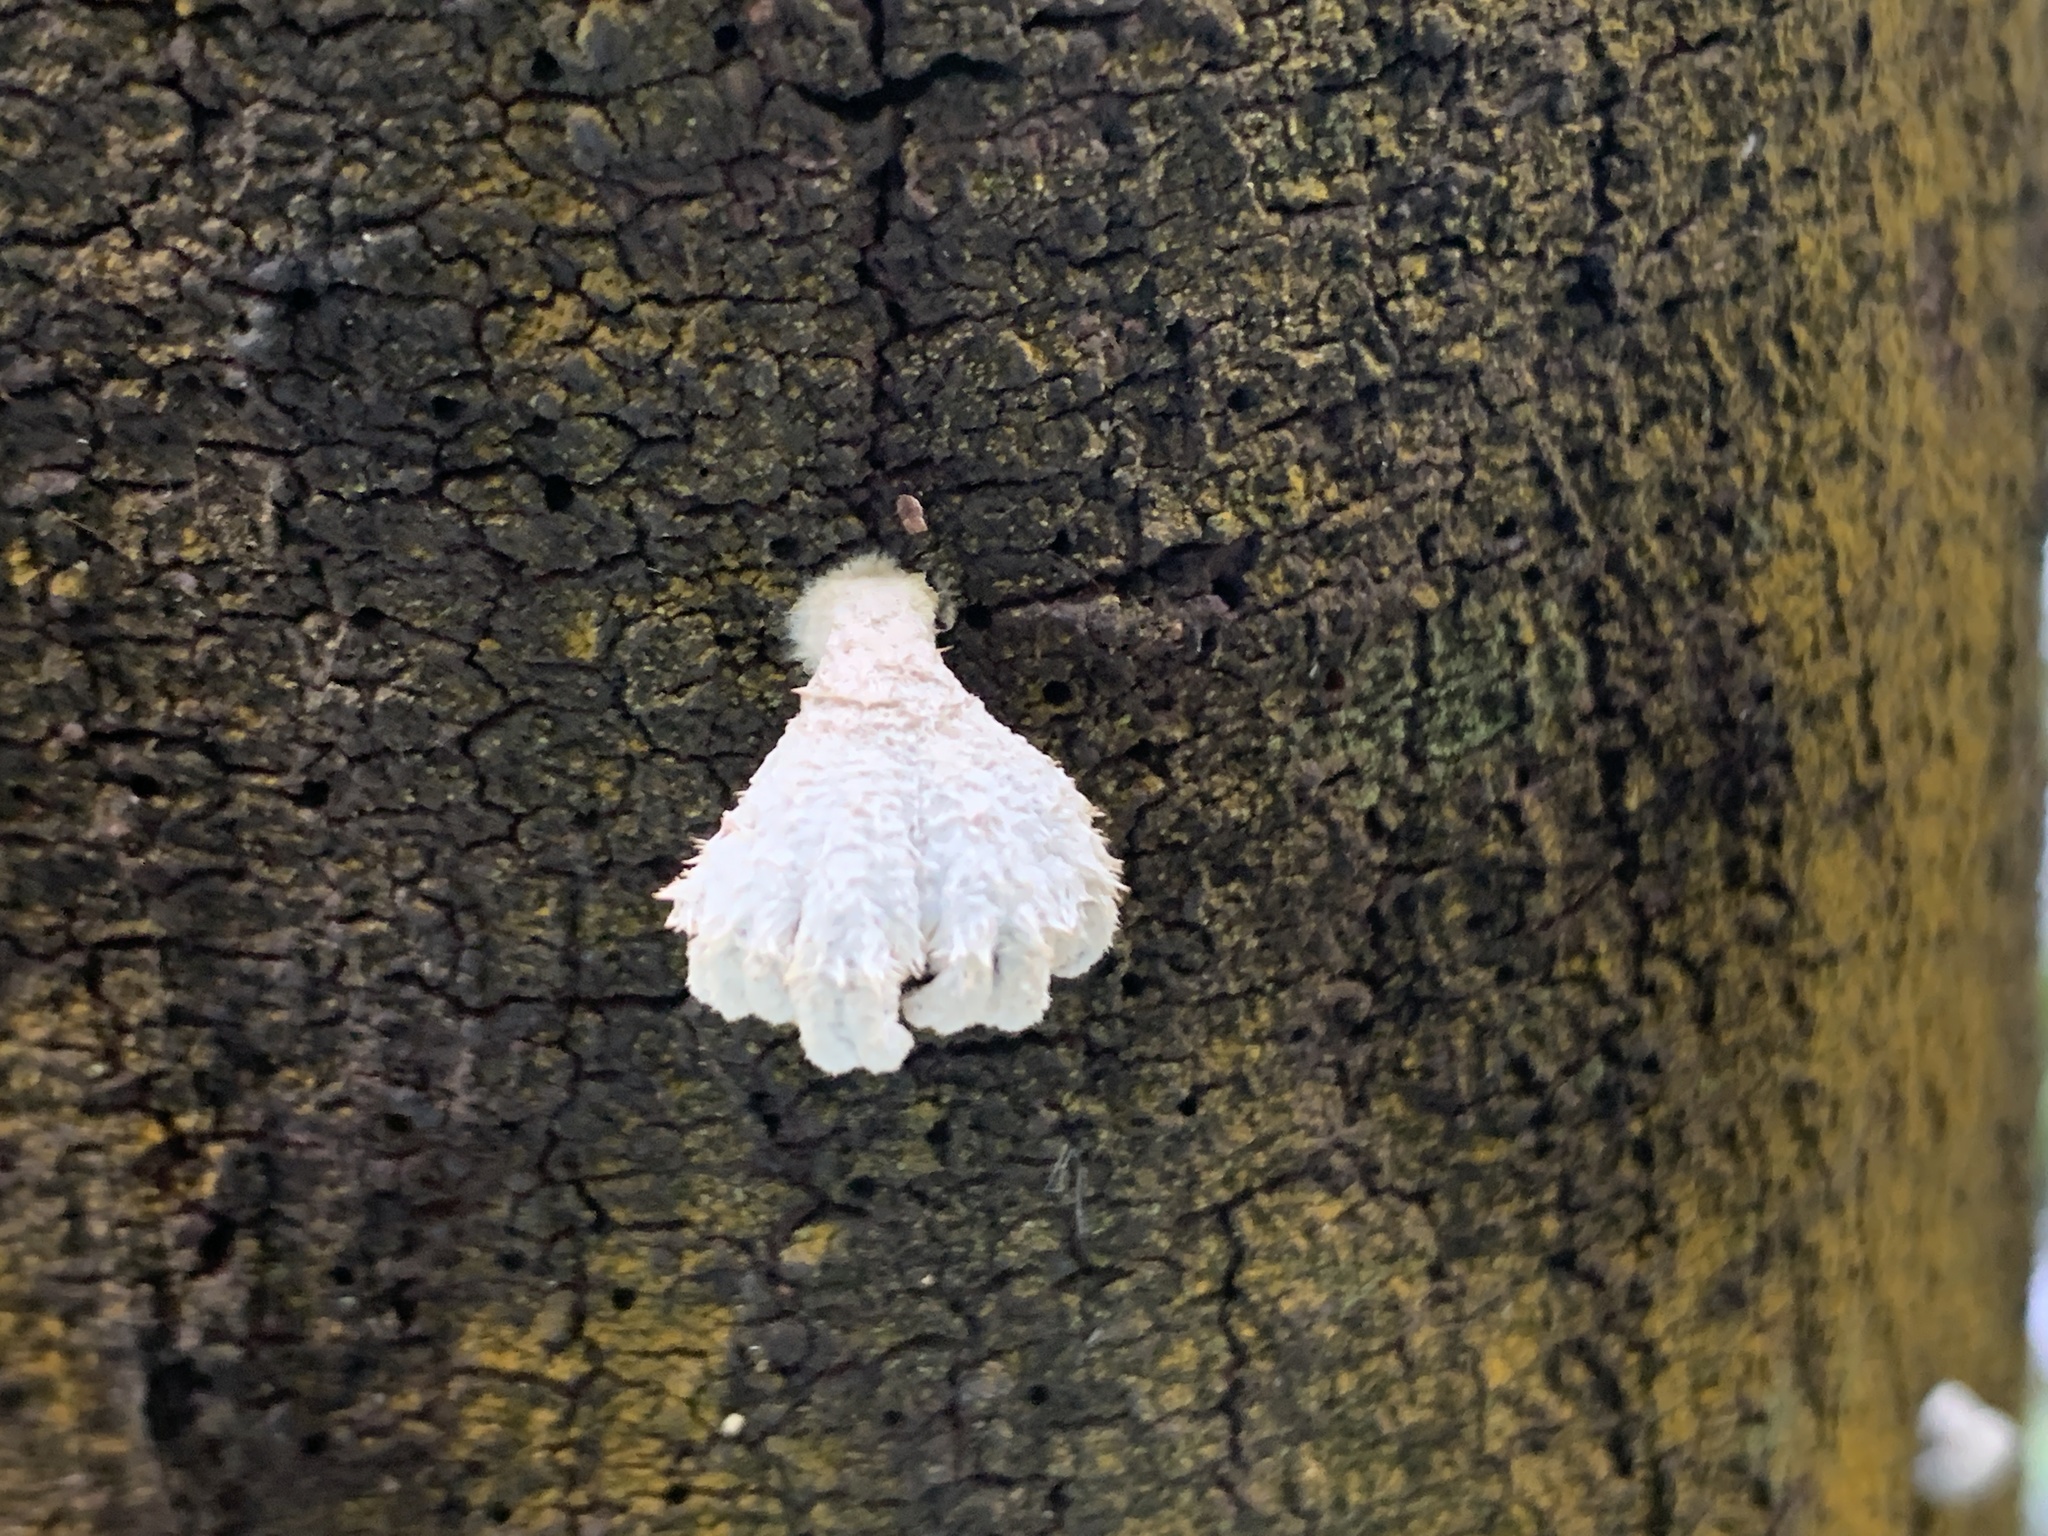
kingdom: Fungi
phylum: Basidiomycota
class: Agaricomycetes
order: Agaricales
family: Schizophyllaceae
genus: Schizophyllum
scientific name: Schizophyllum commune
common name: Common porecrust
